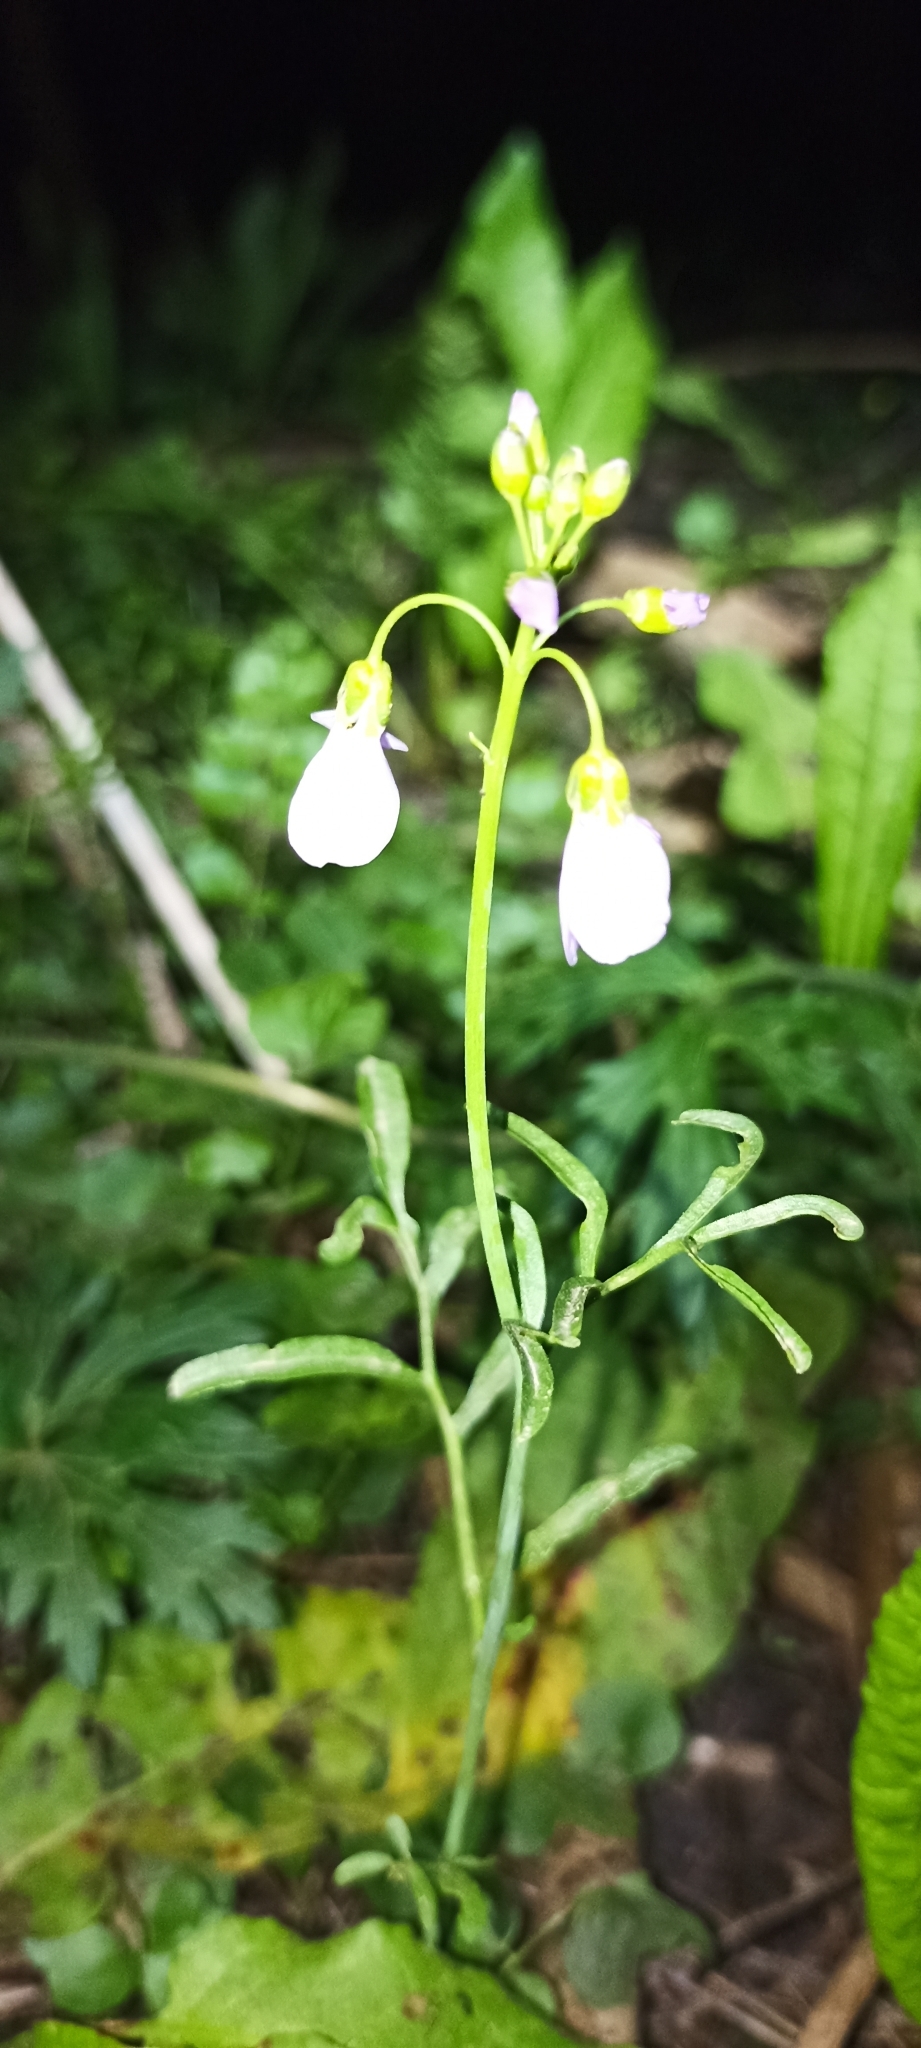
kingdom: Plantae
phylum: Tracheophyta
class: Magnoliopsida
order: Brassicales
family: Brassicaceae
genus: Cardamine
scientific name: Cardamine pratensis
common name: Cuckoo flower
